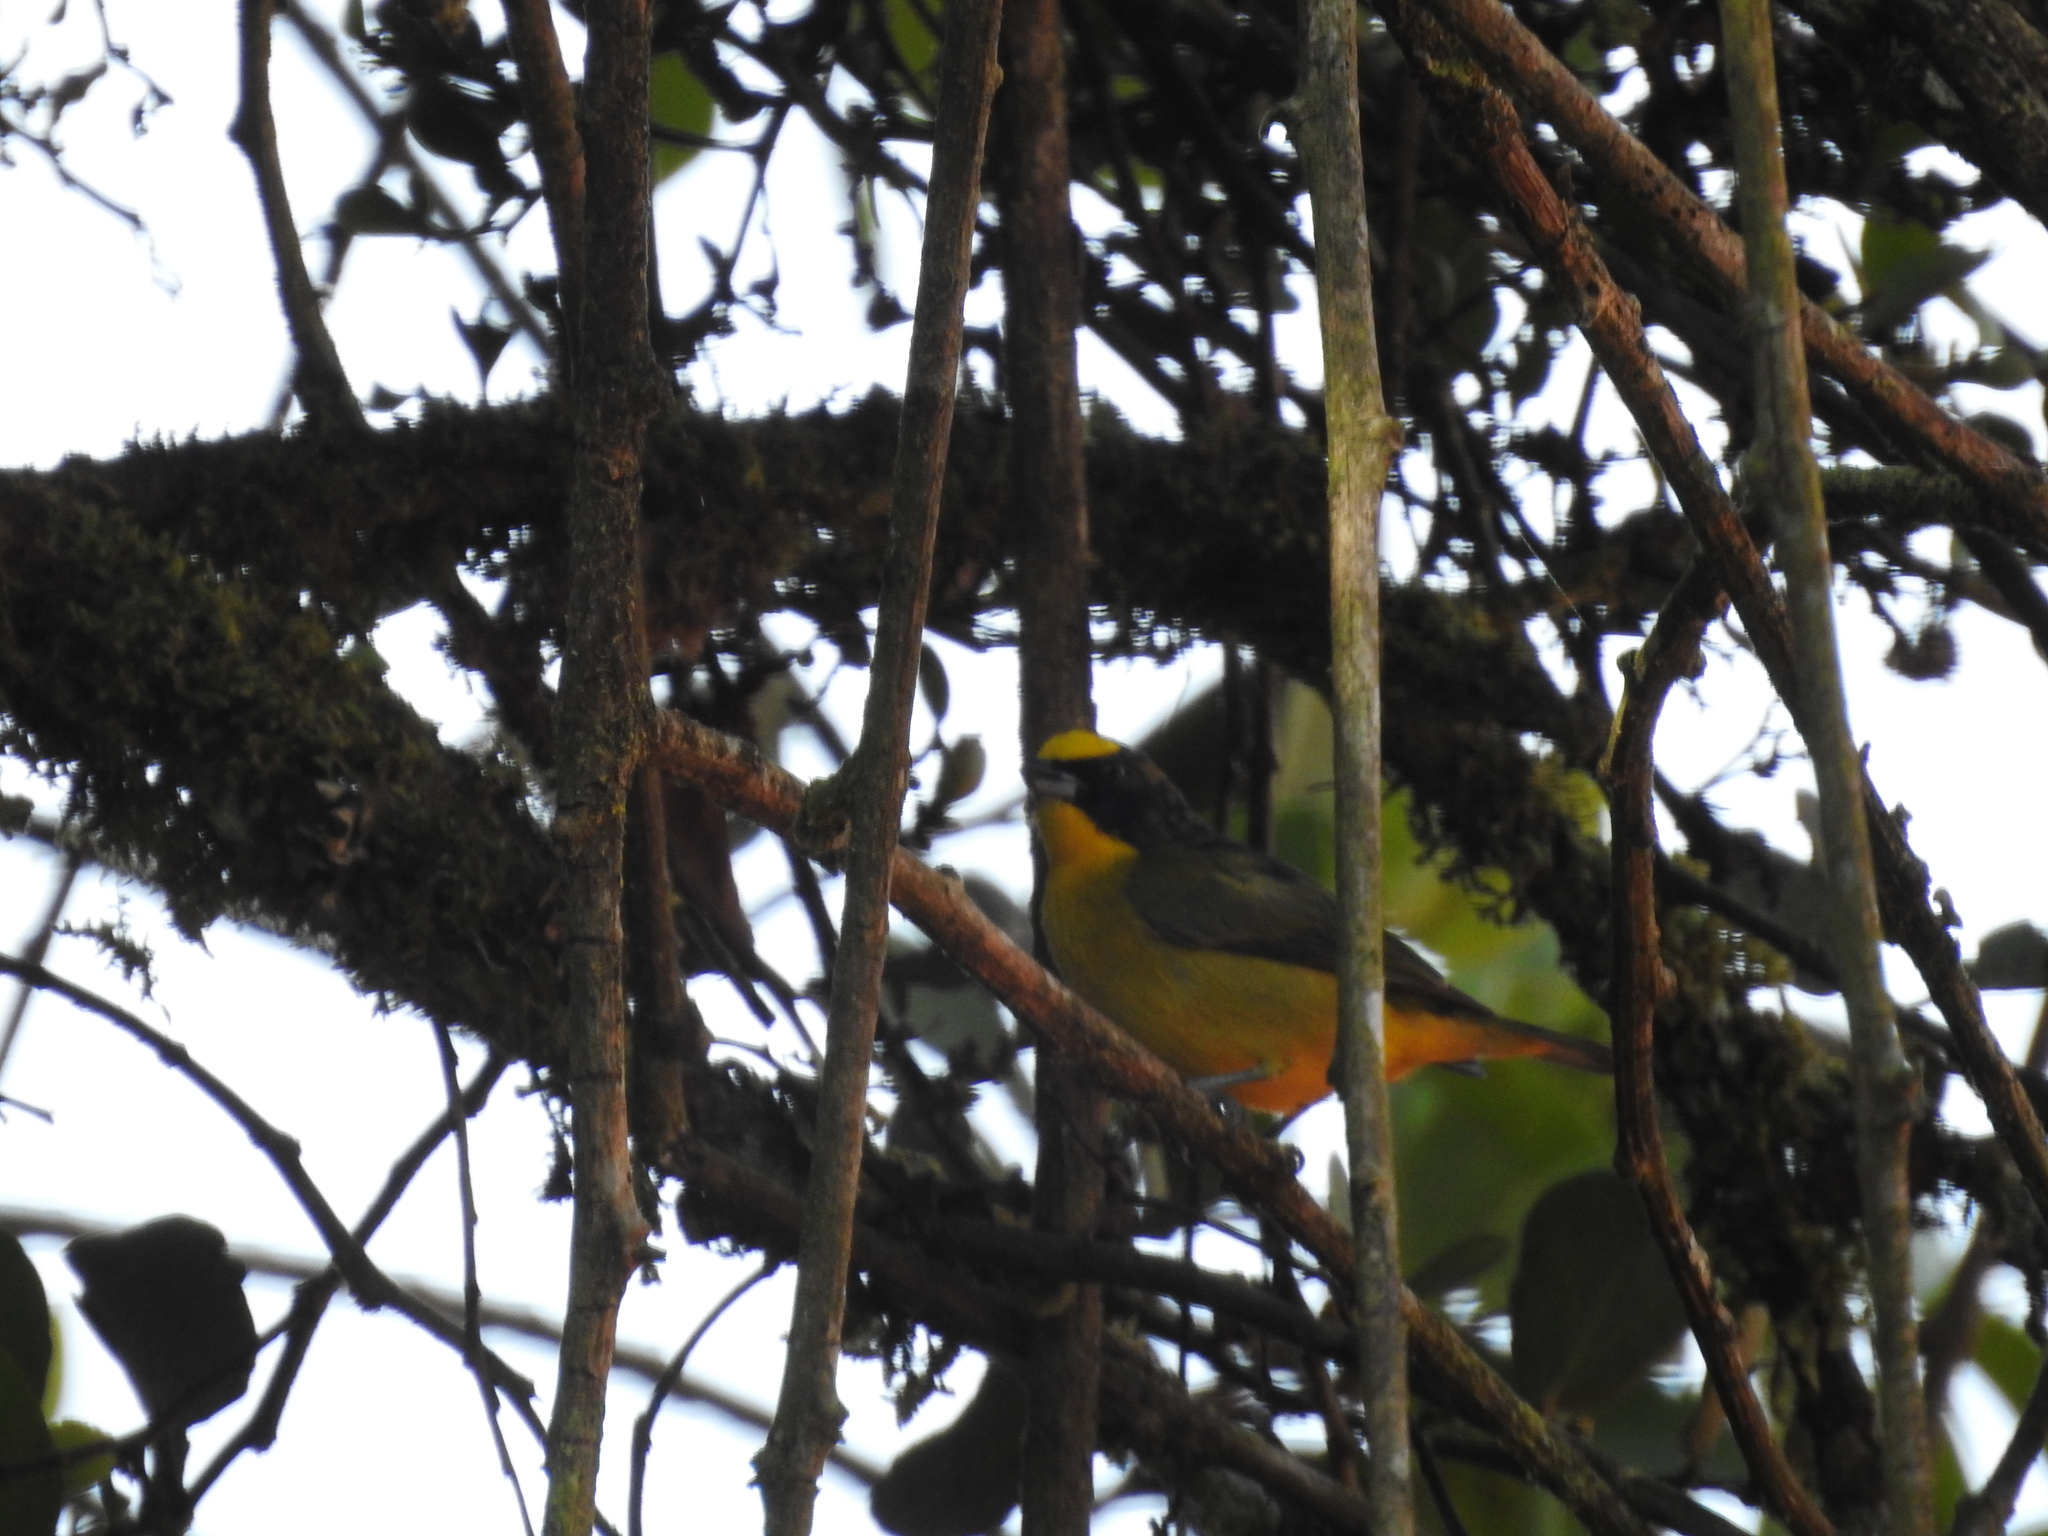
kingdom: Animalia
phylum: Chordata
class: Aves
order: Passeriformes
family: Fringillidae
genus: Euphonia
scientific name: Euphonia laniirostris
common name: Thick-billed euphonia
